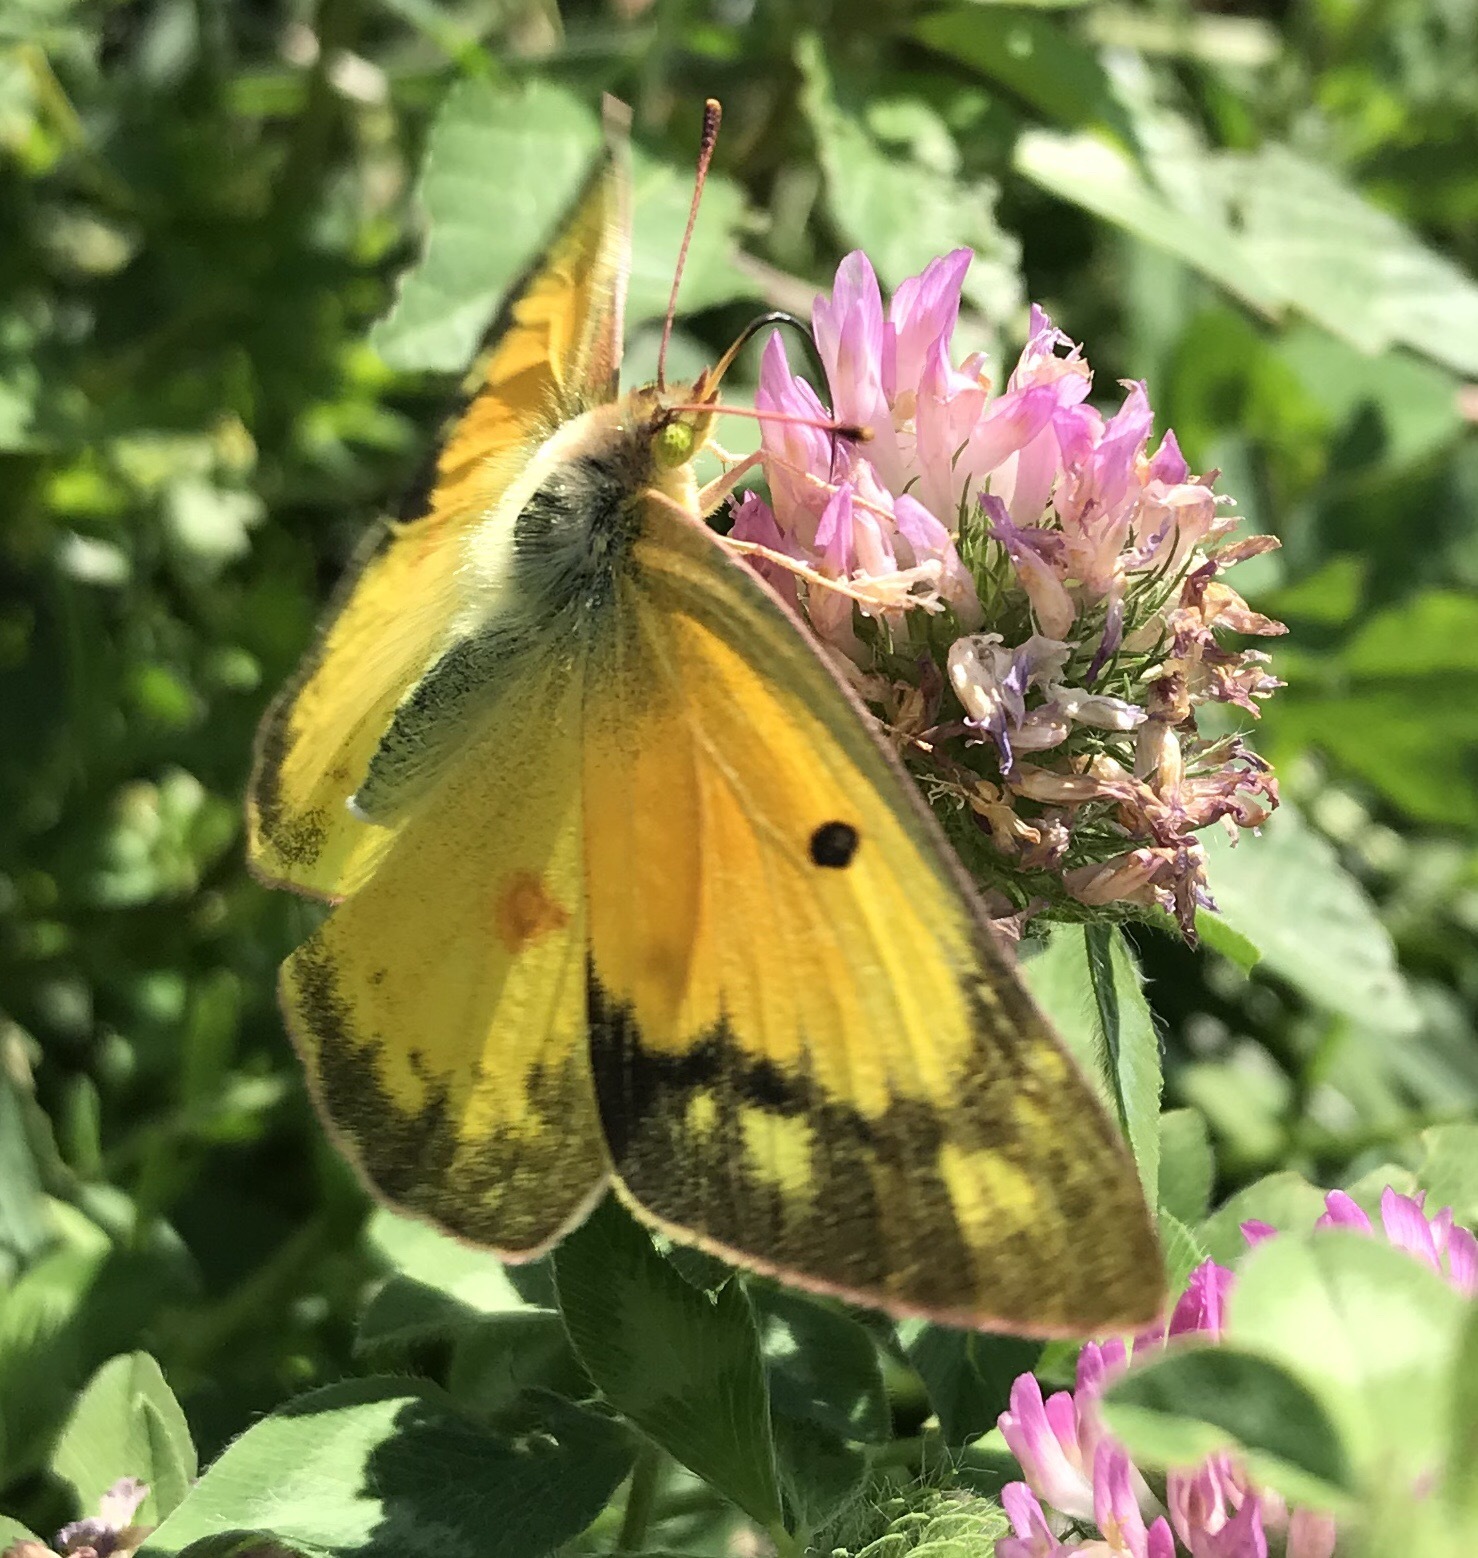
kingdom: Animalia
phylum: Arthropoda
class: Insecta
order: Lepidoptera
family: Pieridae
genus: Colias
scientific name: Colias eurytheme
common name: Alfalfa butterfly
